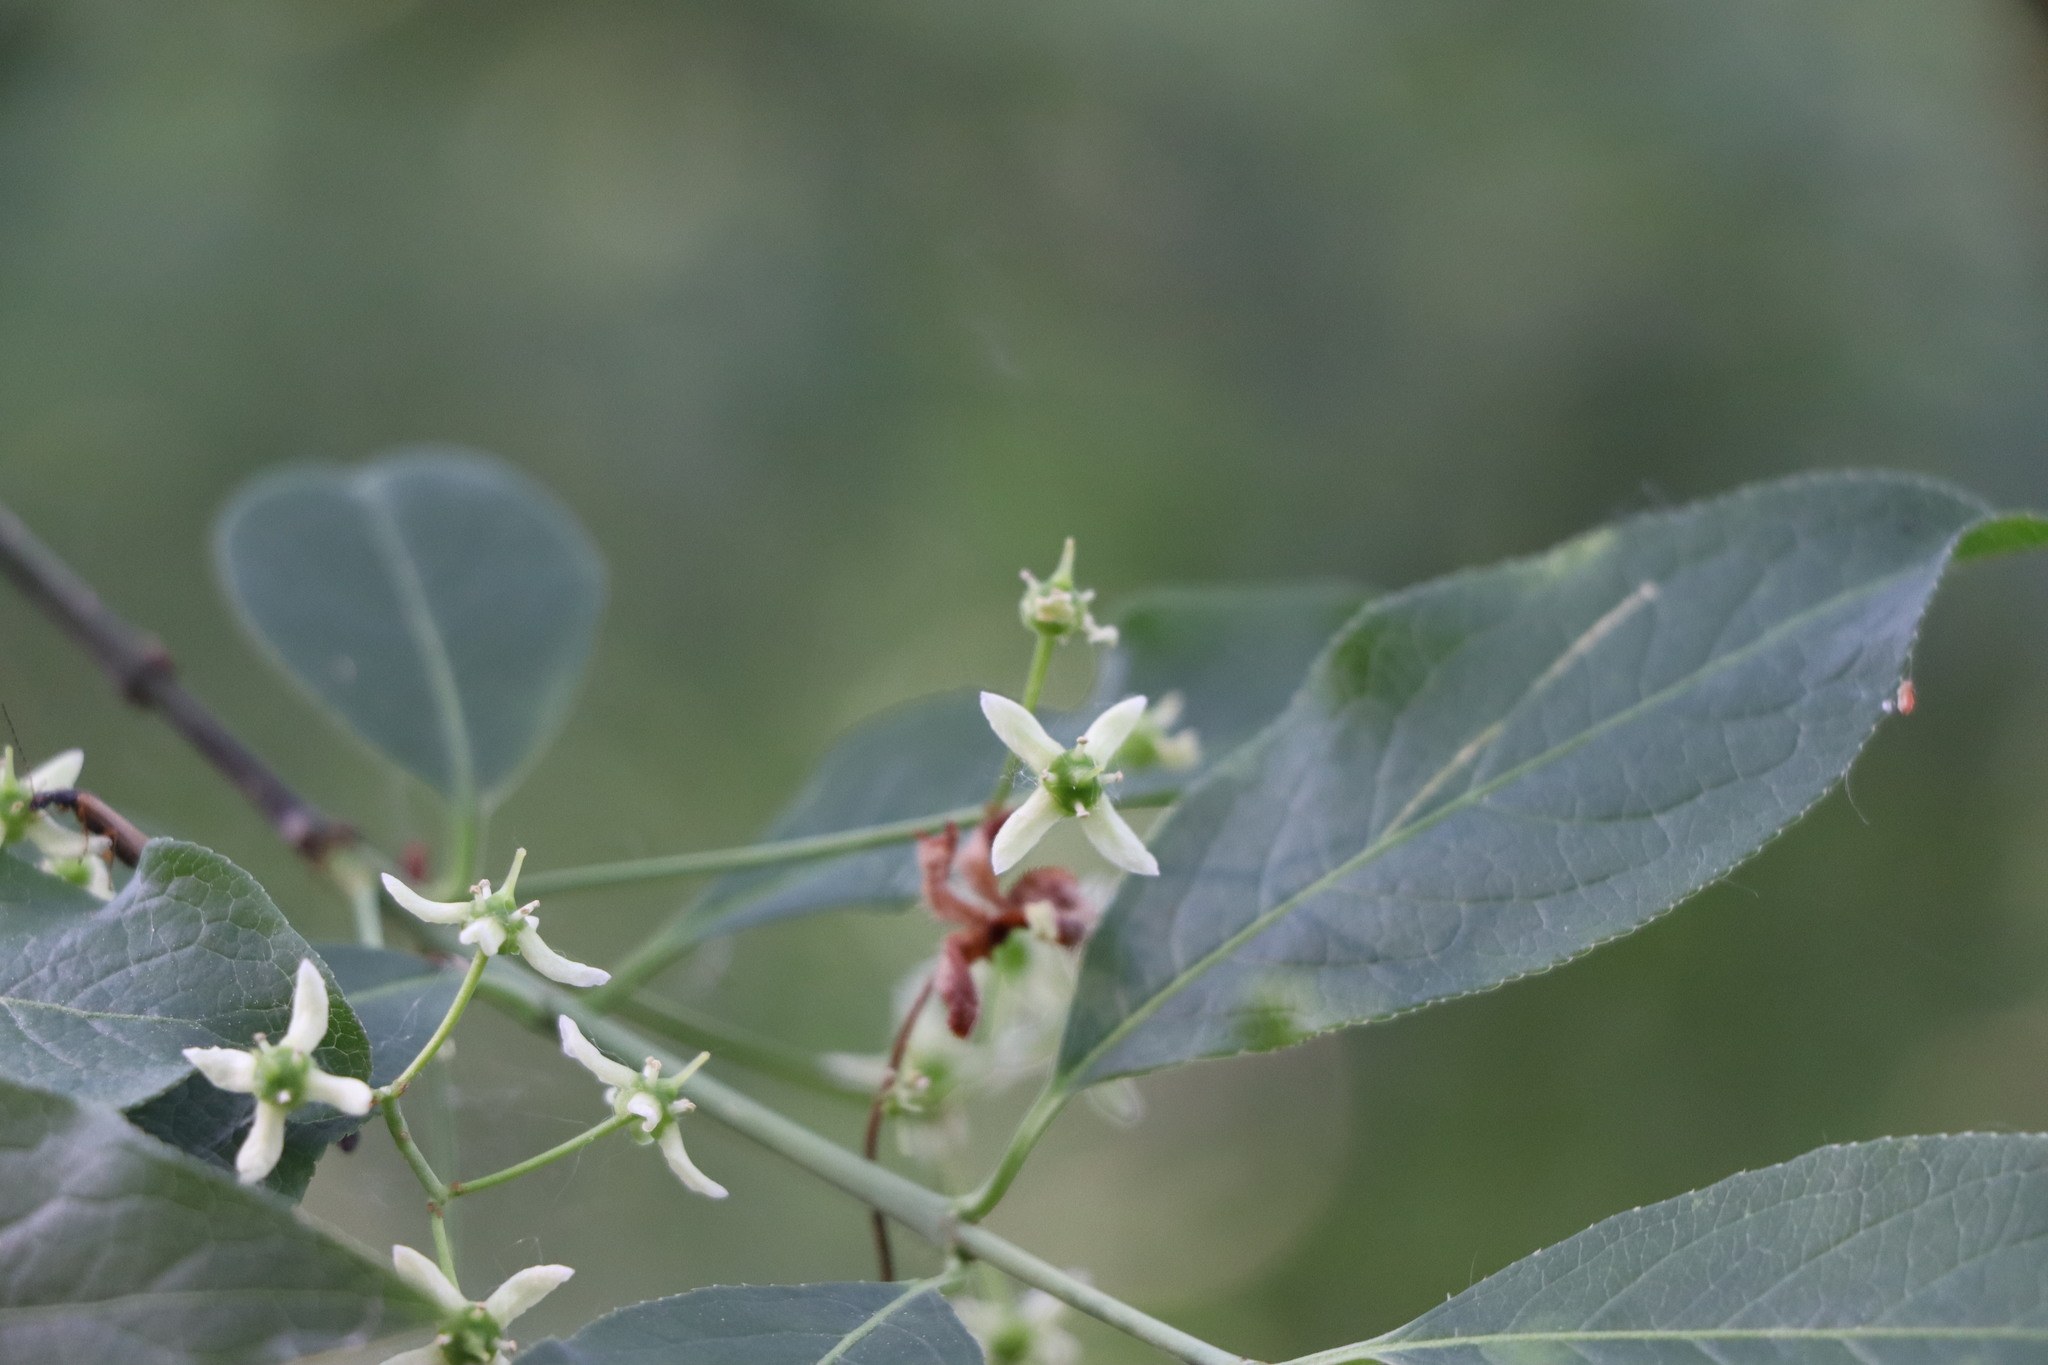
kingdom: Plantae
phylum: Tracheophyta
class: Magnoliopsida
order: Celastrales
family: Celastraceae
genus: Euonymus
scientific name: Euonymus europaeus
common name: Spindle
